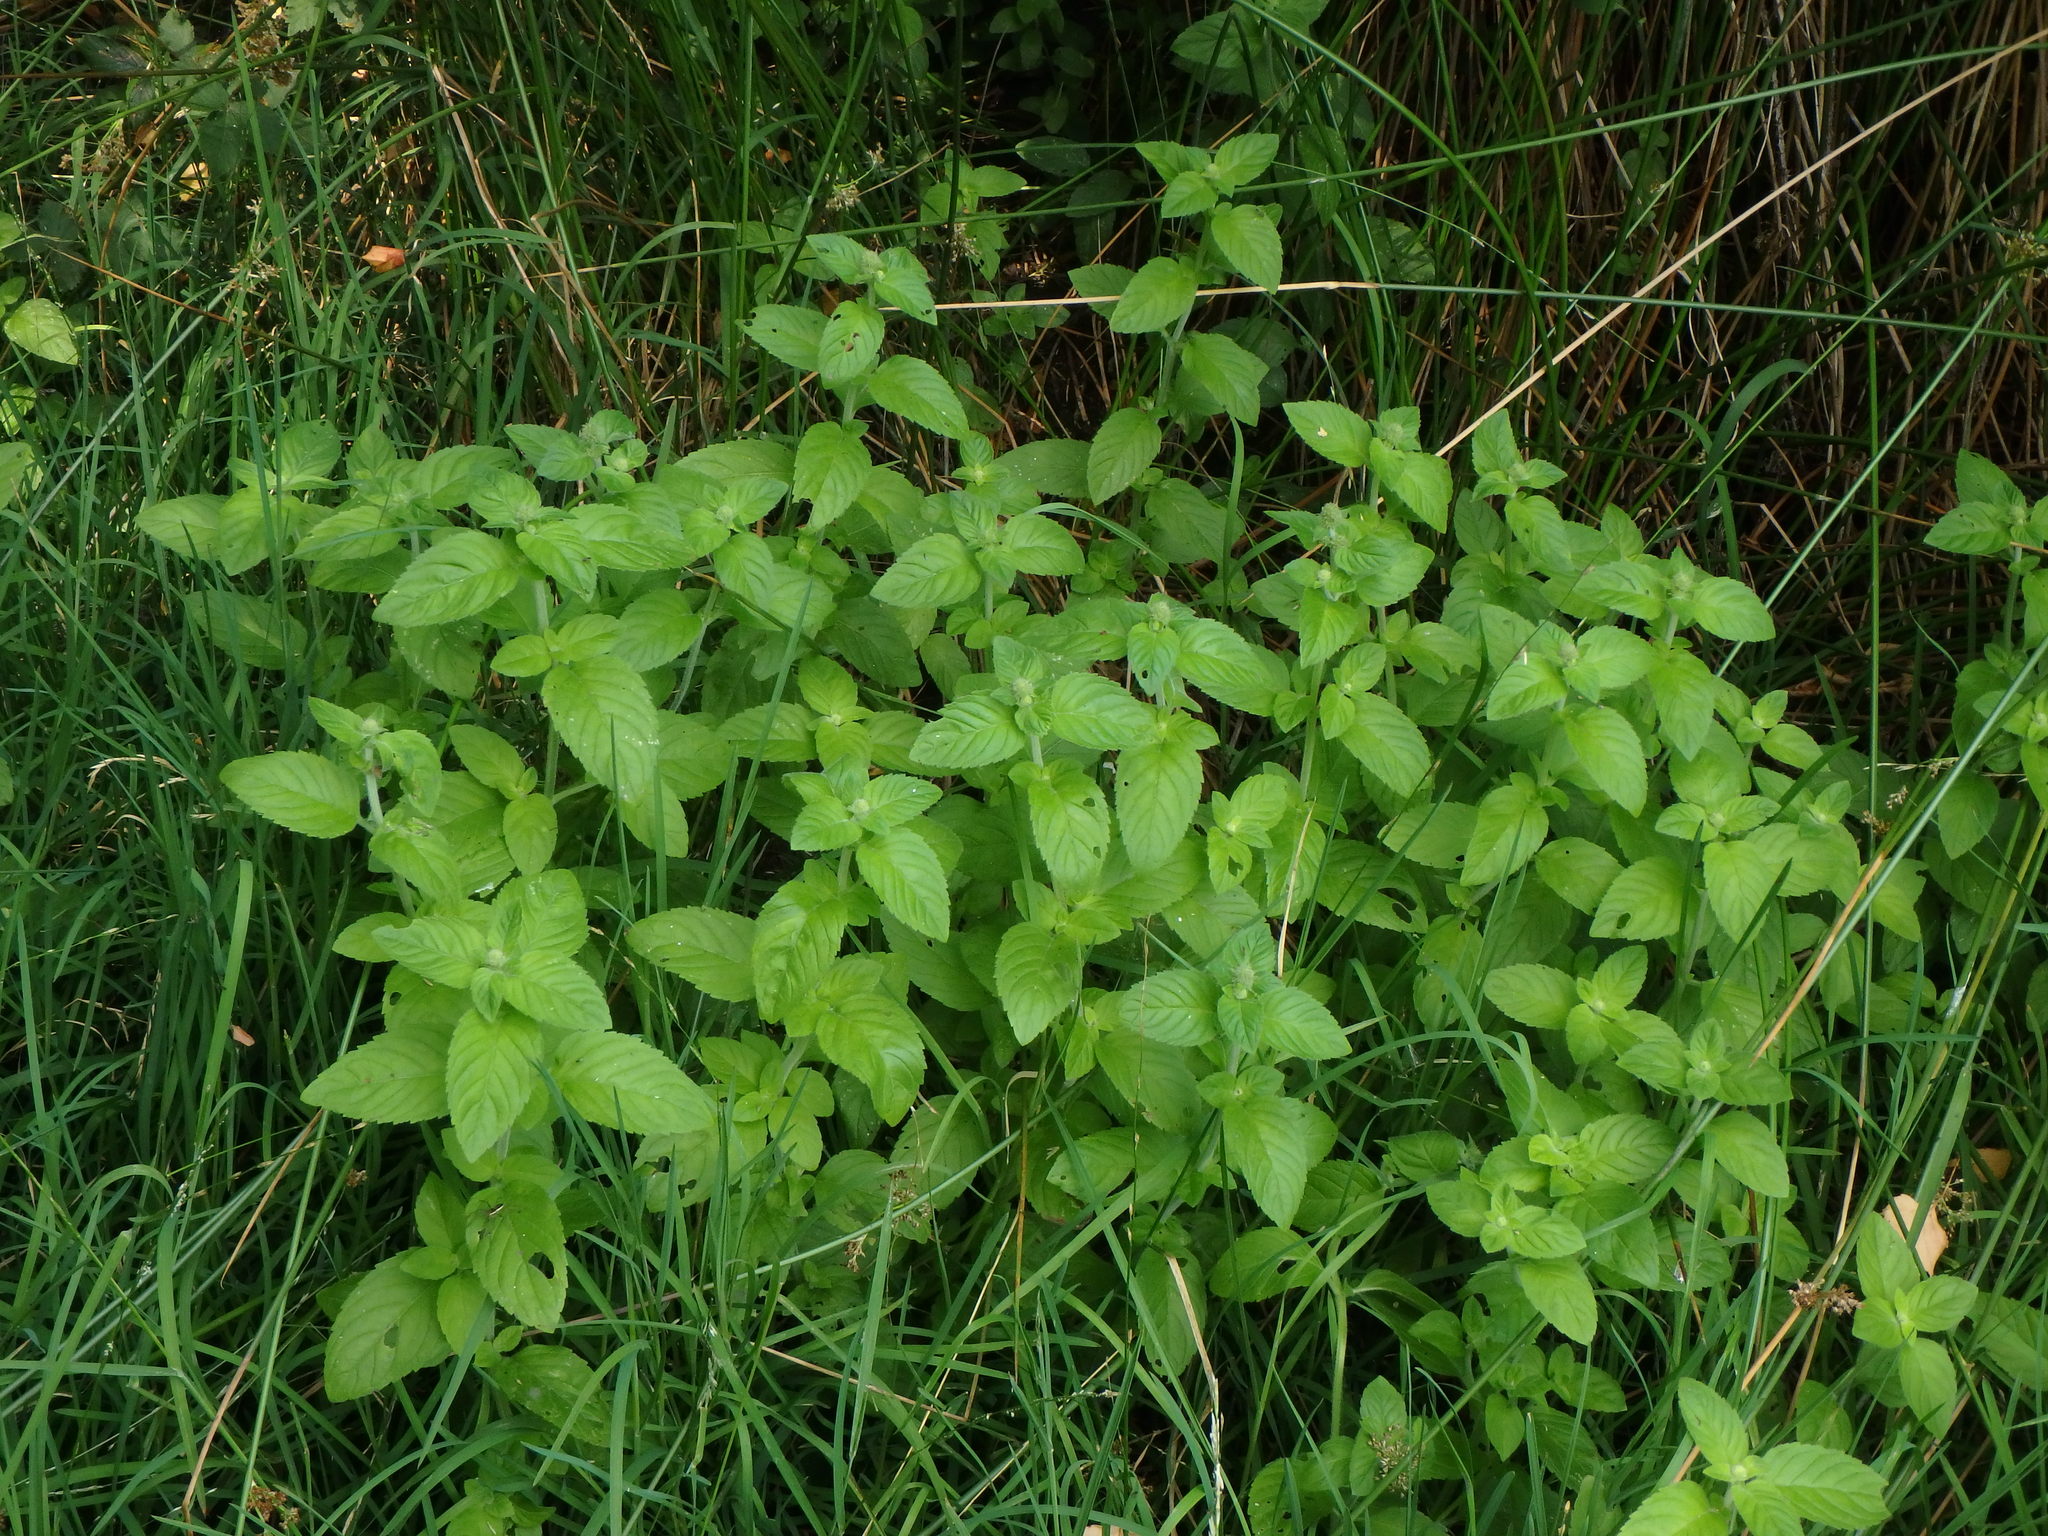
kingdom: Plantae
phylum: Tracheophyta
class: Magnoliopsida
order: Lamiales
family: Lamiaceae
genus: Mentha
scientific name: Mentha aquatica
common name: Water mint
